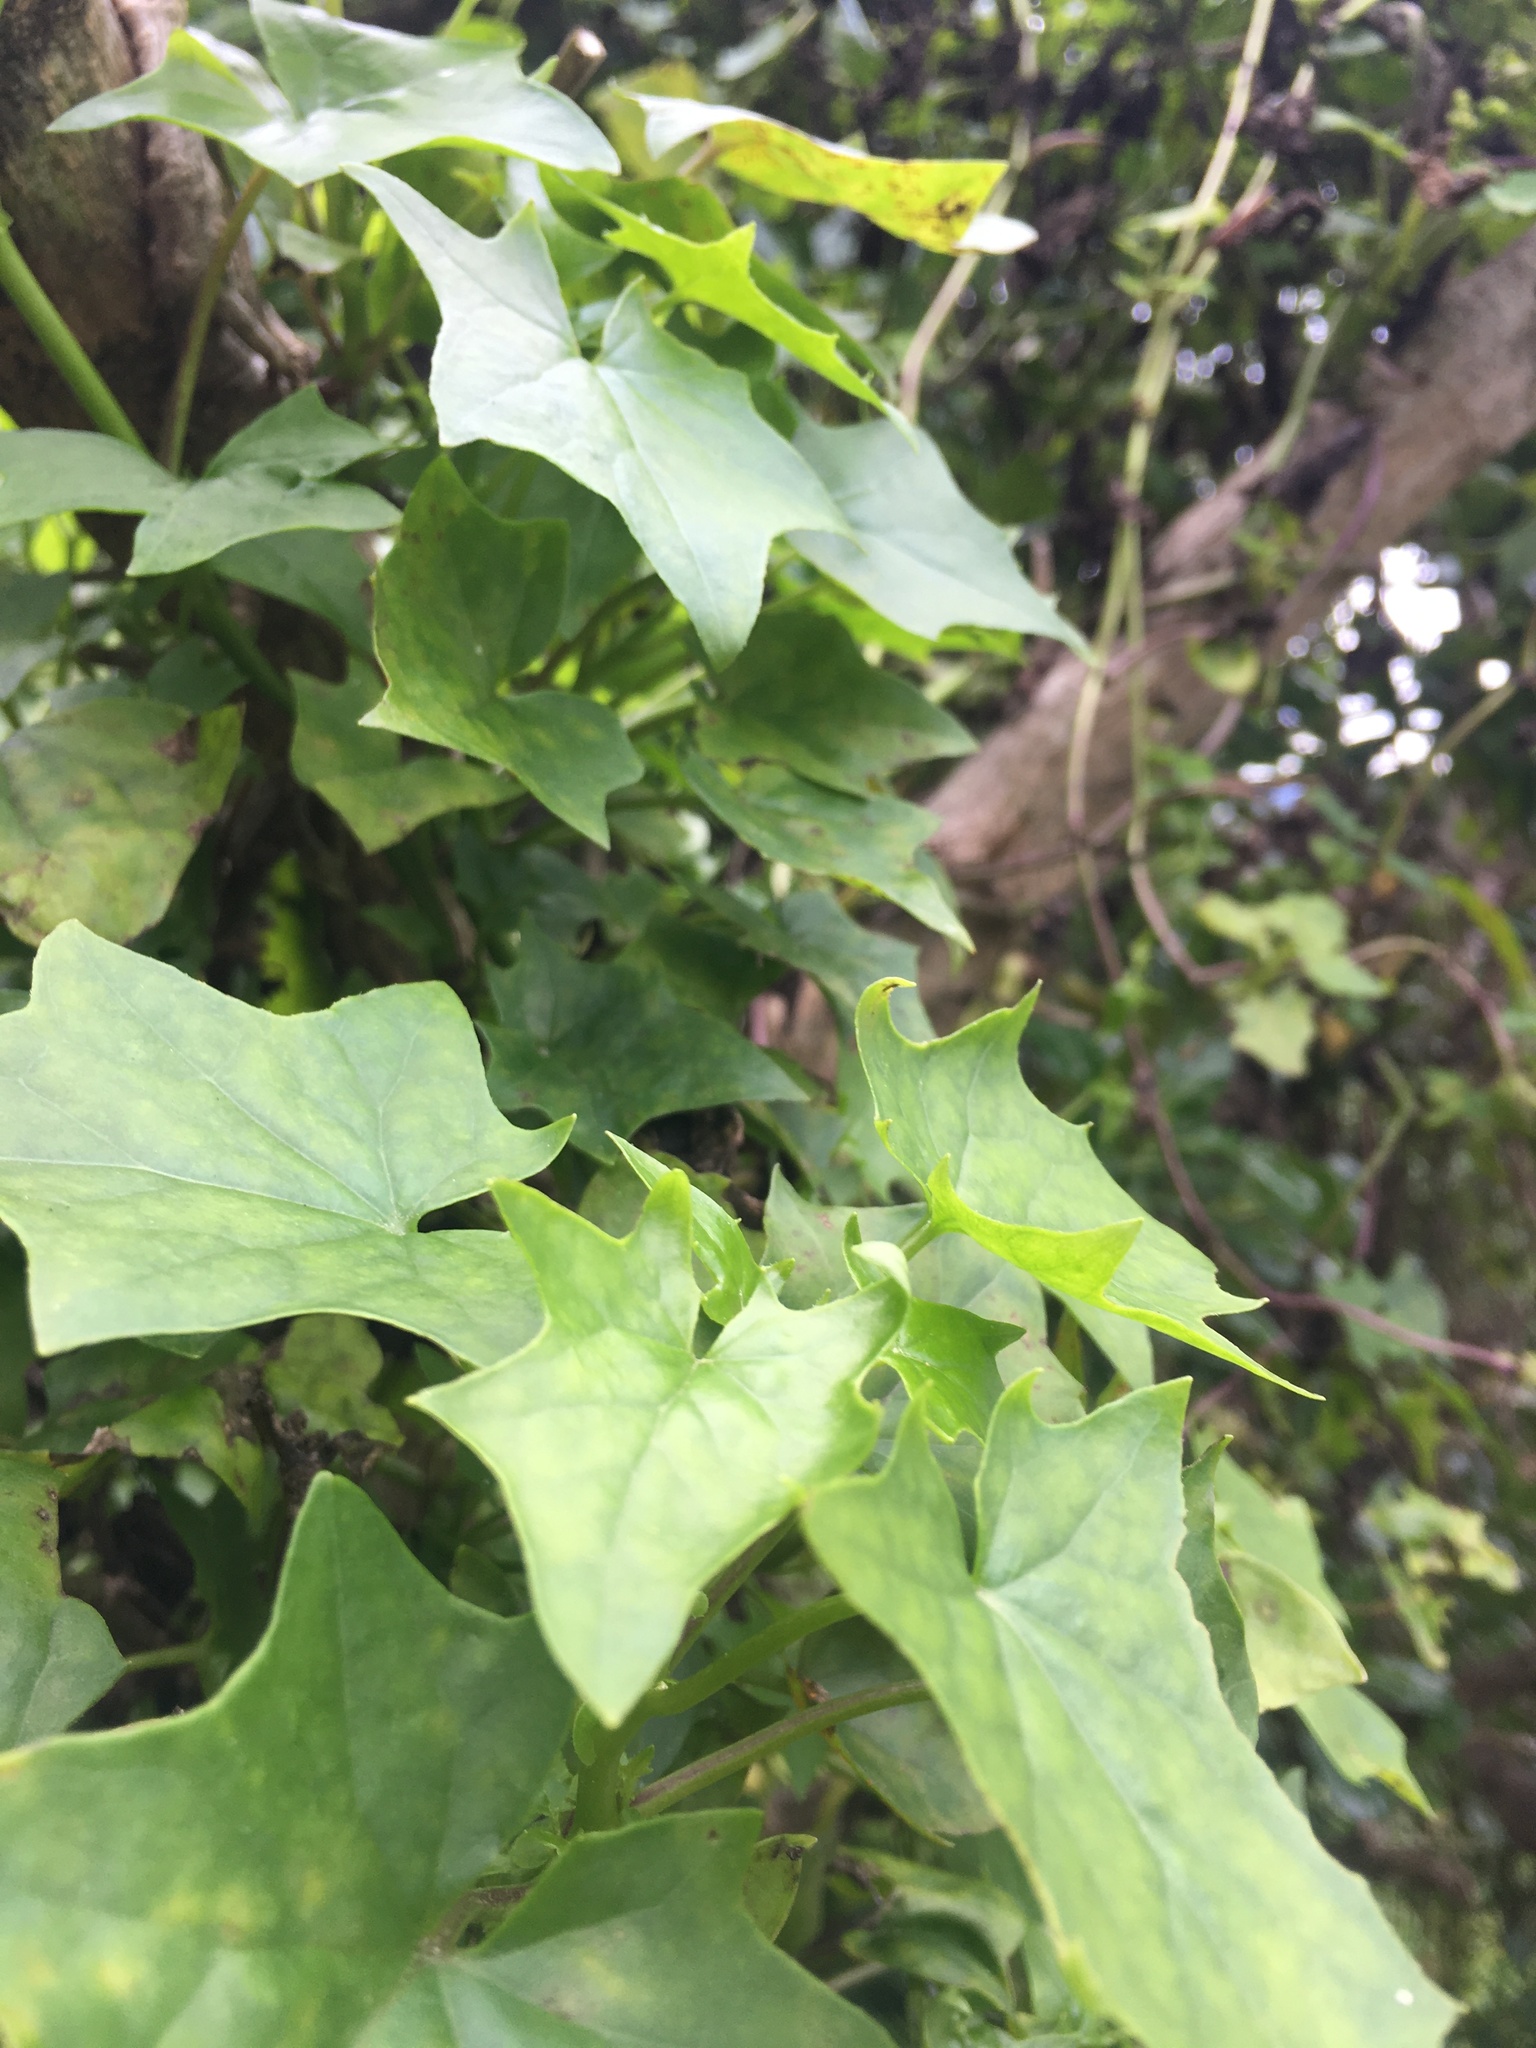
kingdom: Plantae
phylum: Tracheophyta
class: Magnoliopsida
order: Asterales
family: Asteraceae
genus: Delairea
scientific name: Delairea odorata
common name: Cape-ivy
